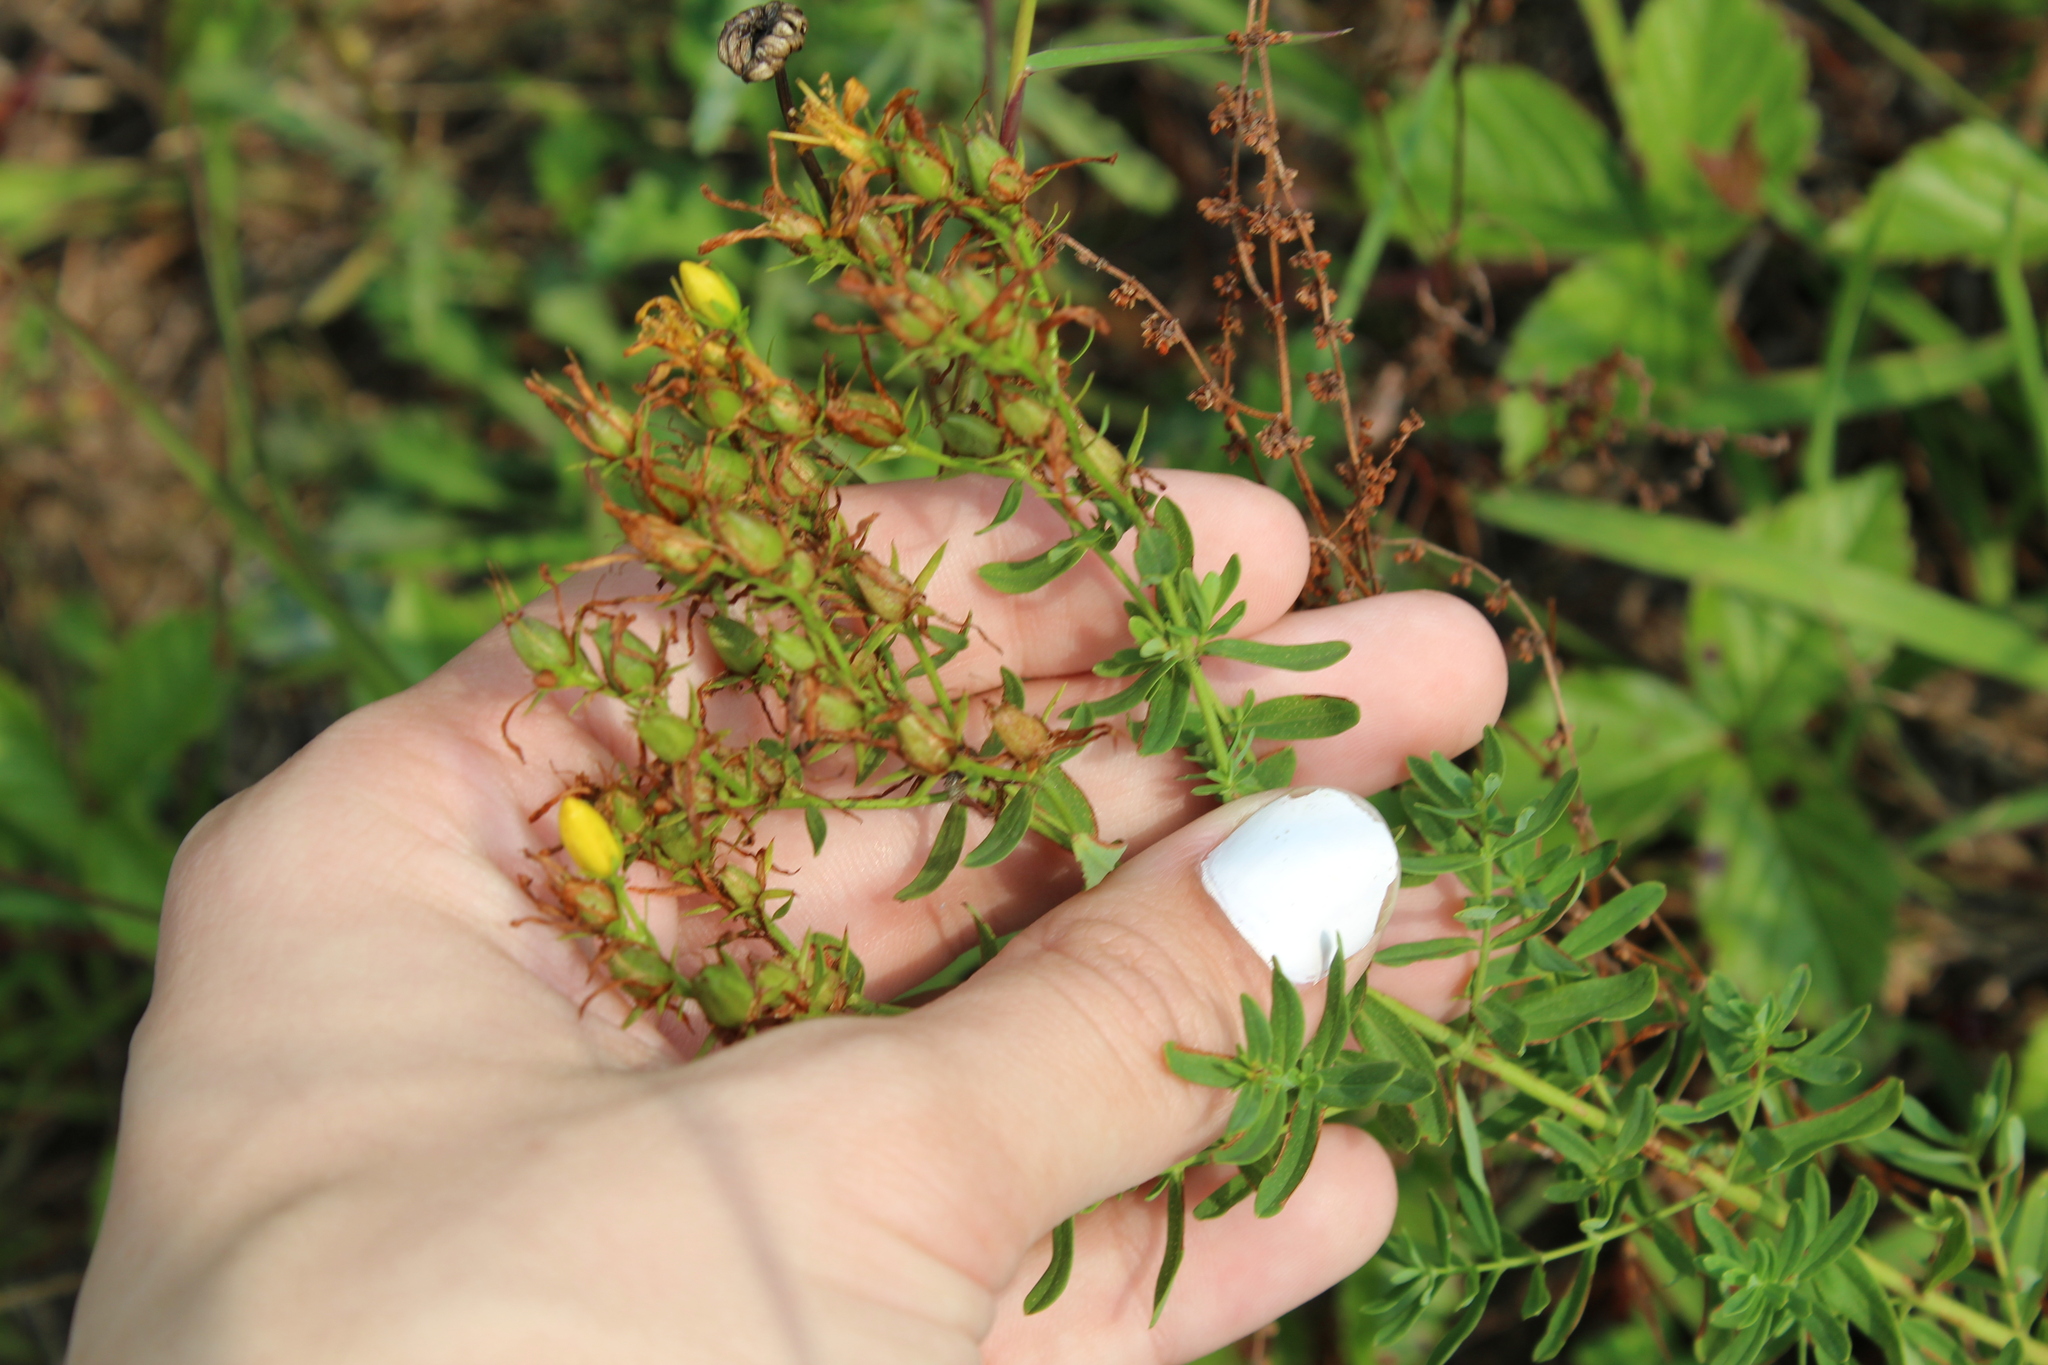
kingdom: Plantae
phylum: Tracheophyta
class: Magnoliopsida
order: Malpighiales
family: Hypericaceae
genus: Hypericum
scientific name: Hypericum perforatum
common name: Common st. johnswort
